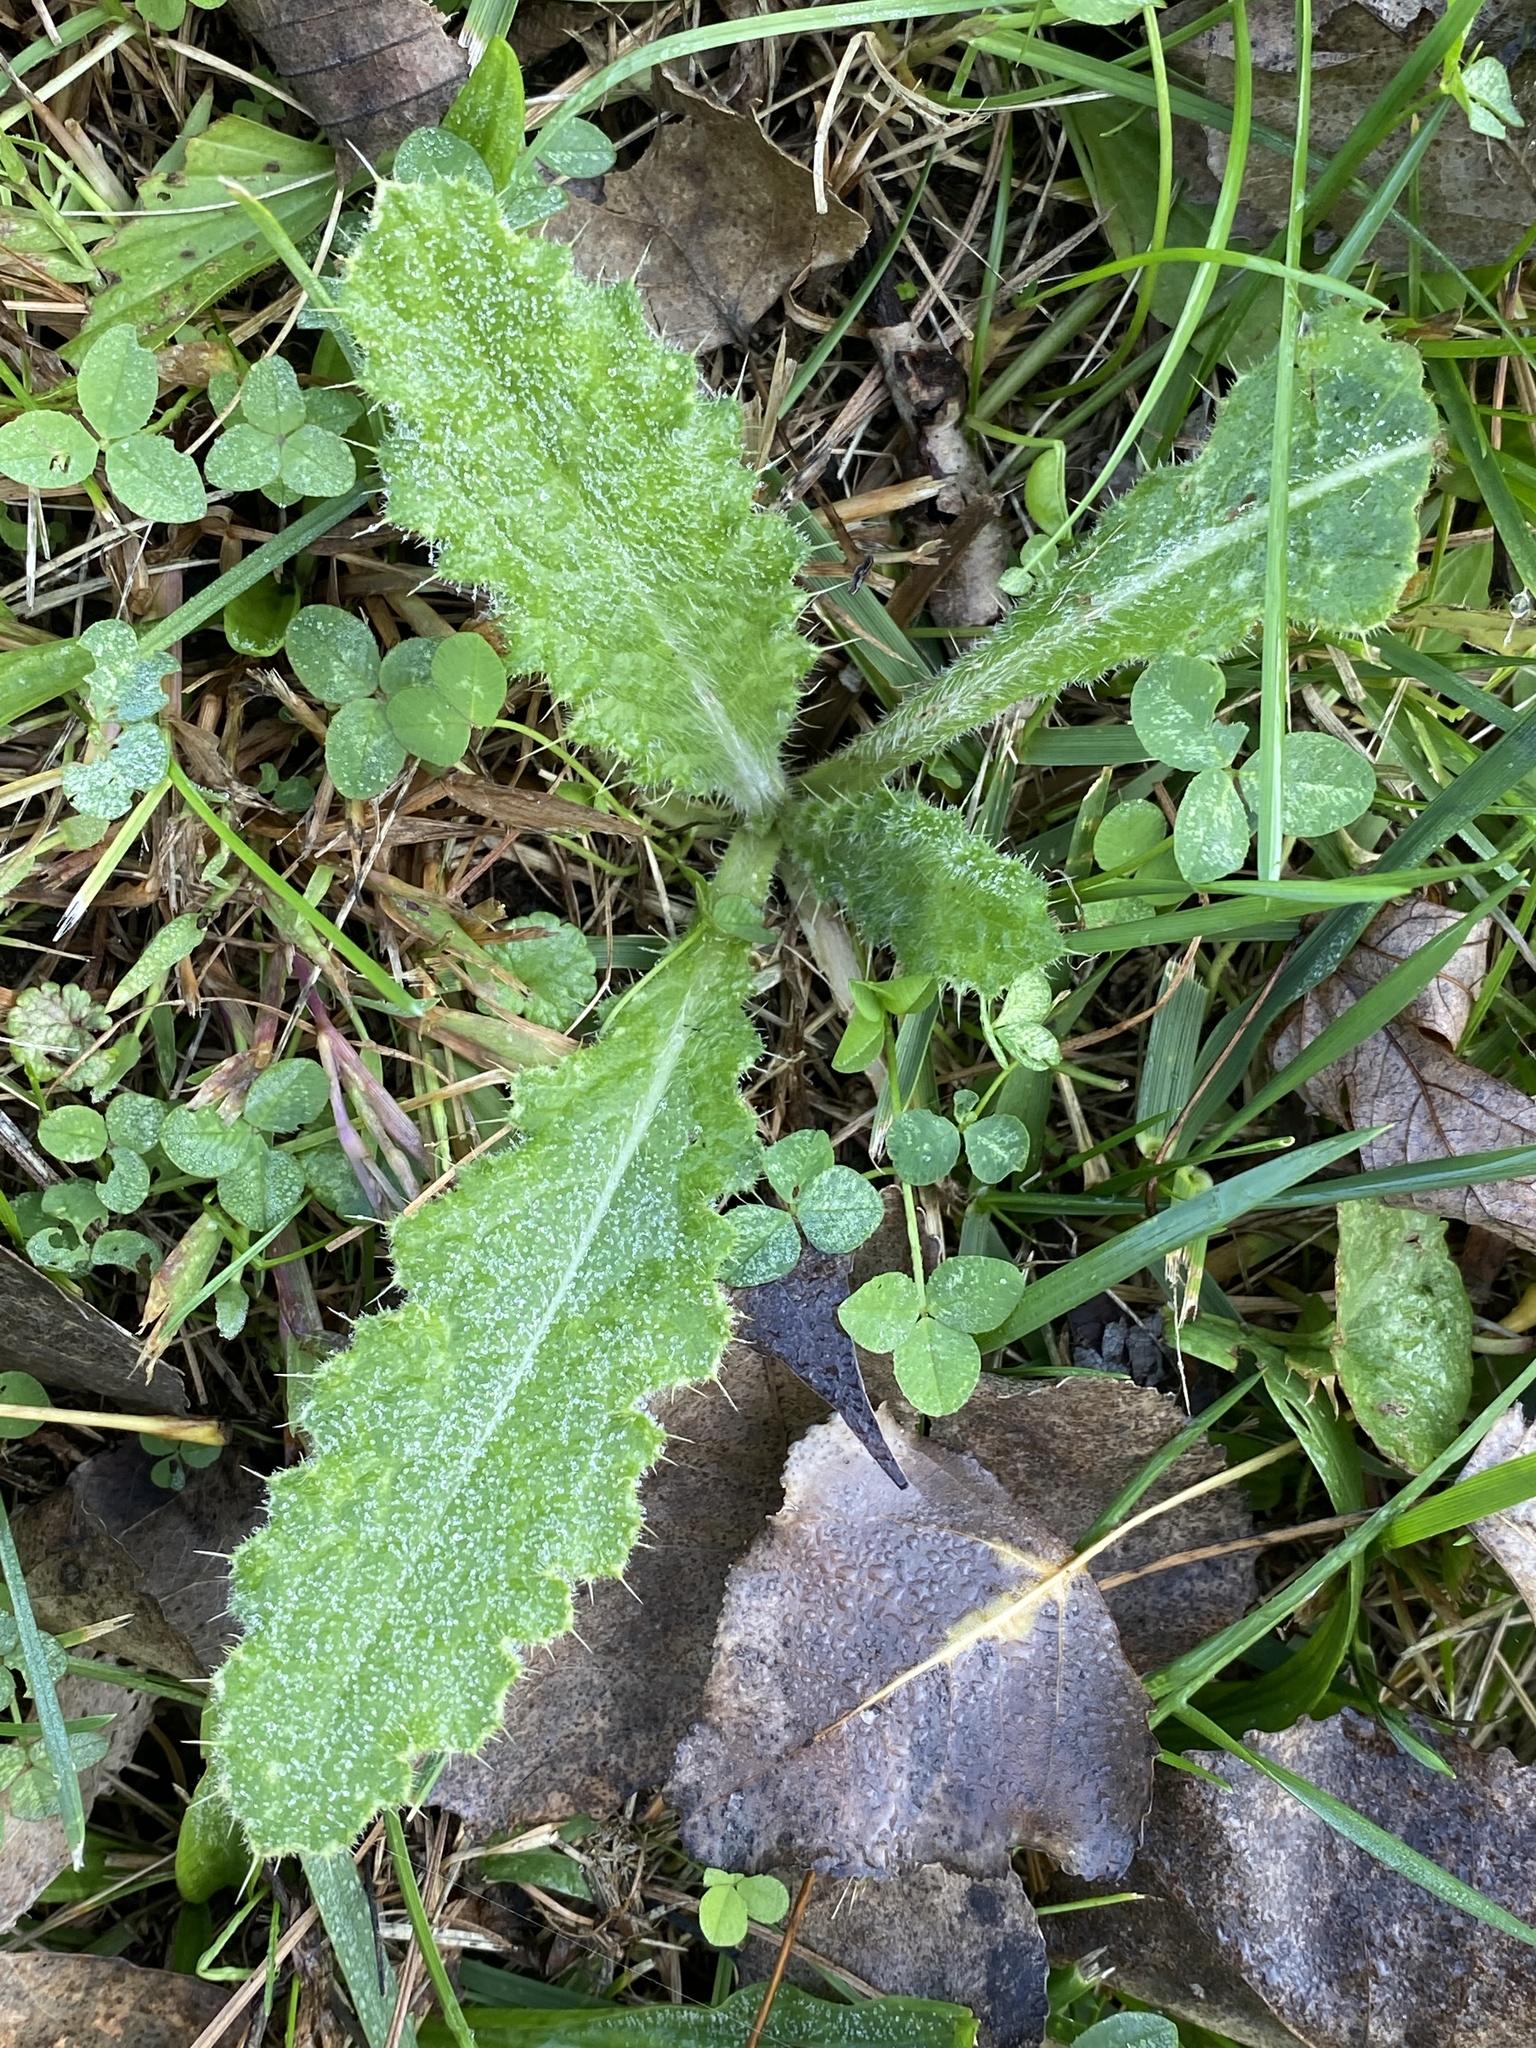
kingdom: Plantae
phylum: Tracheophyta
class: Magnoliopsida
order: Asterales
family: Asteraceae
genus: Cirsium
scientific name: Cirsium vulgare
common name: Bull thistle
